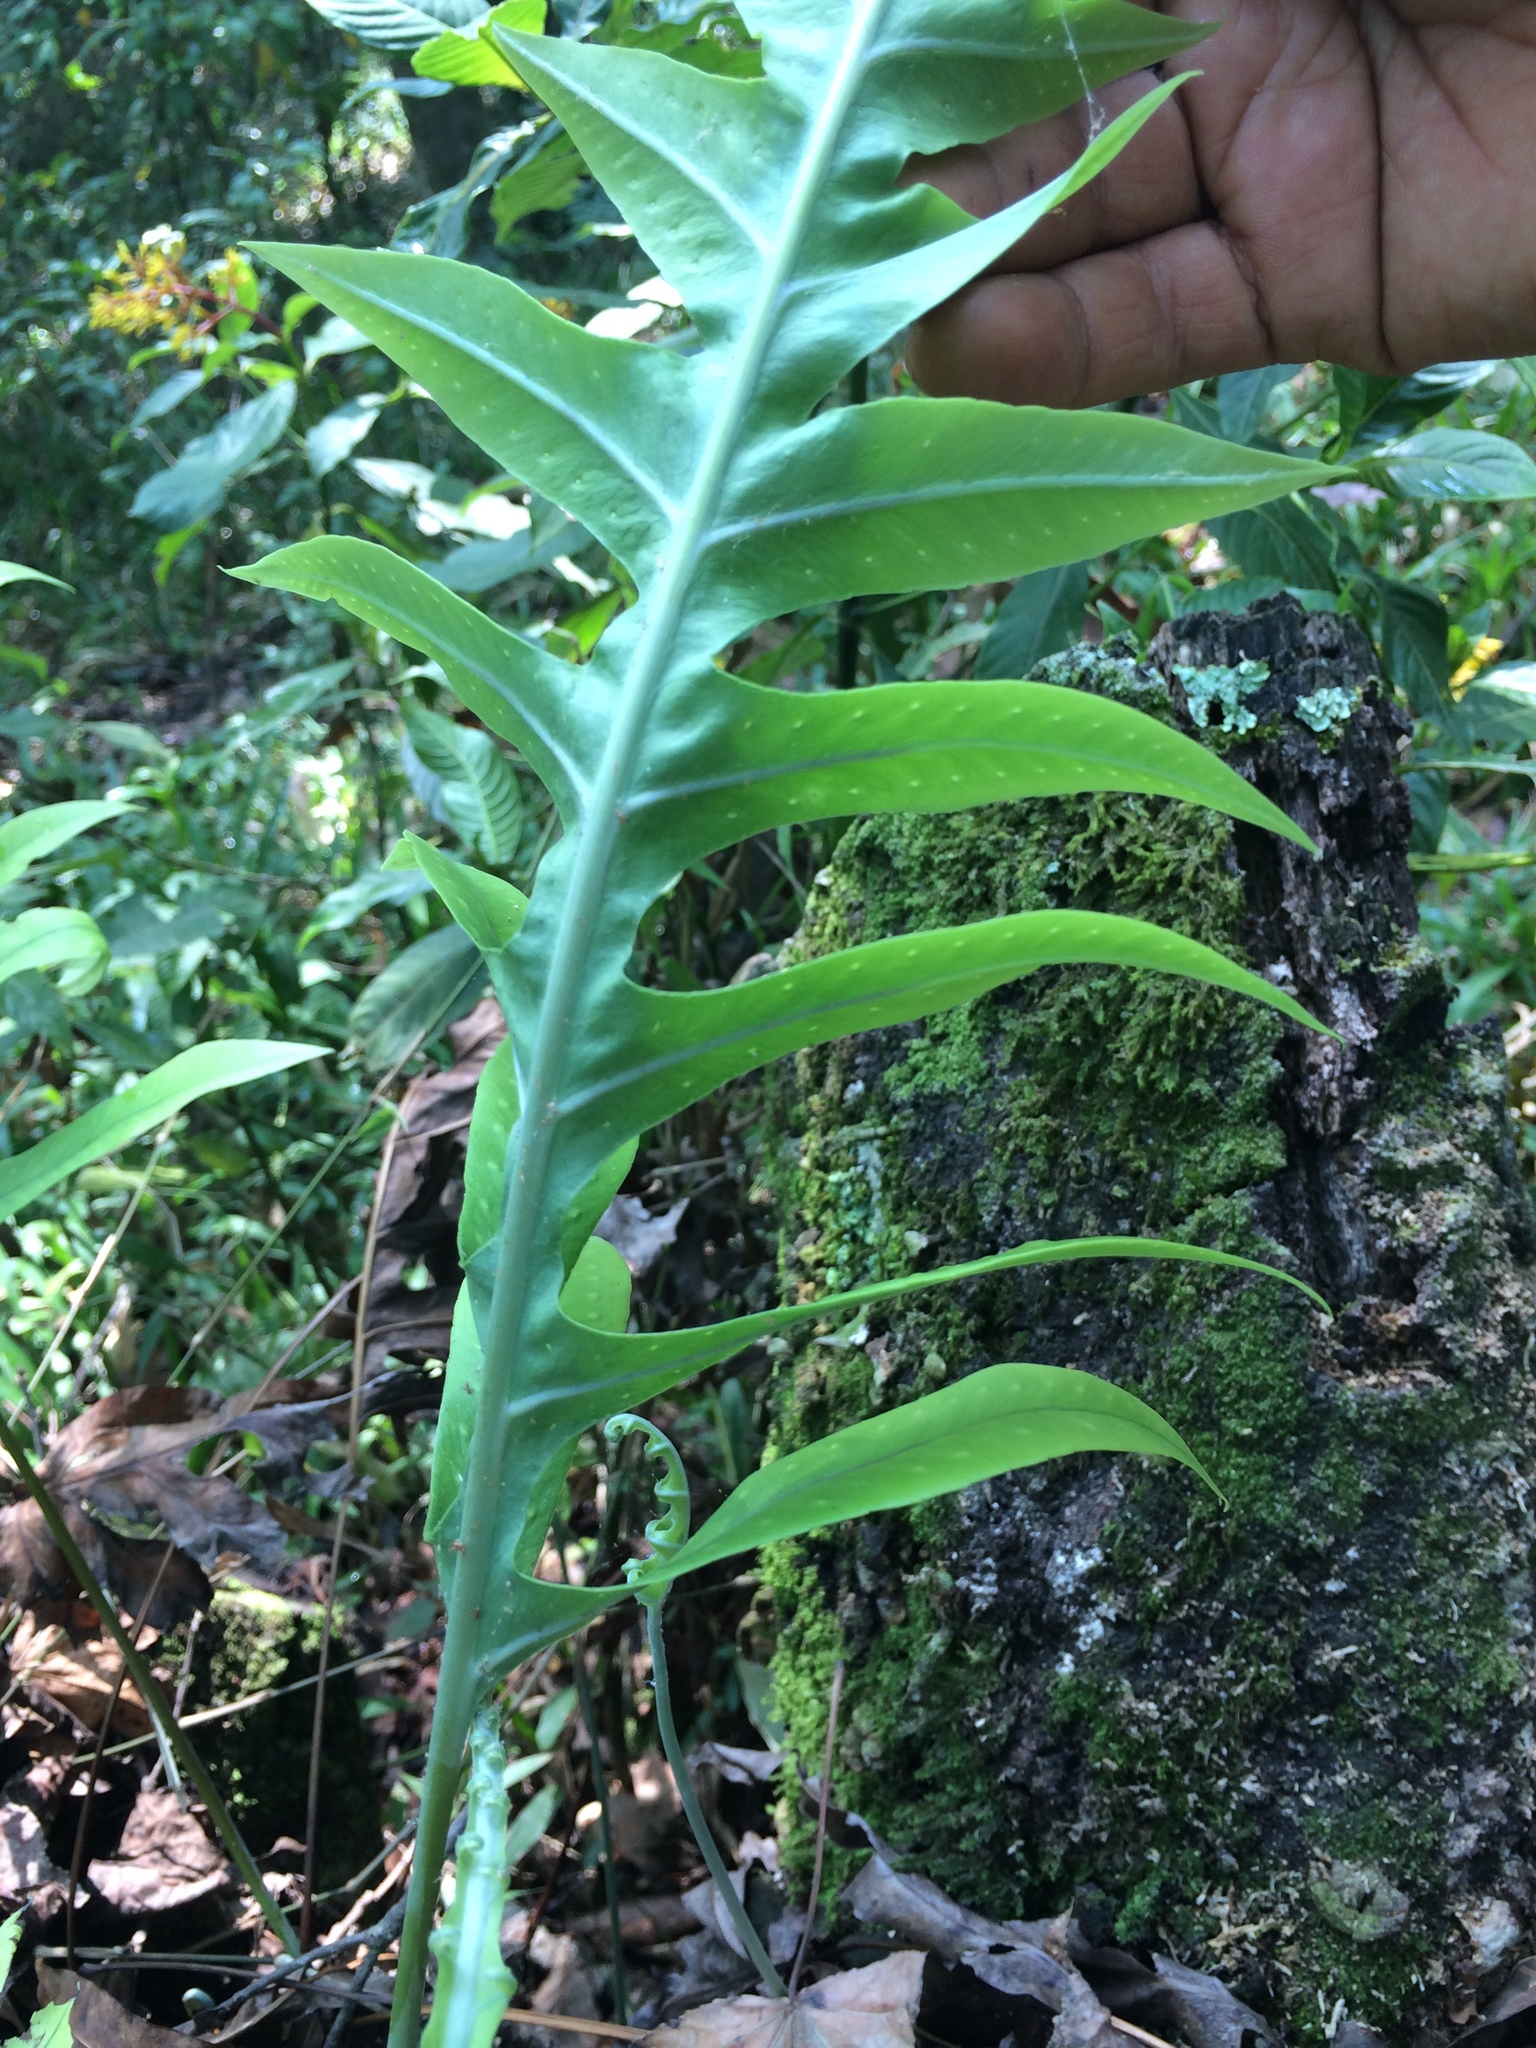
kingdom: Plantae
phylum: Tracheophyta
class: Polypodiopsida
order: Polypodiales
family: Polypodiaceae
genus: Phlebodium
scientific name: Phlebodium pseudoaureum
